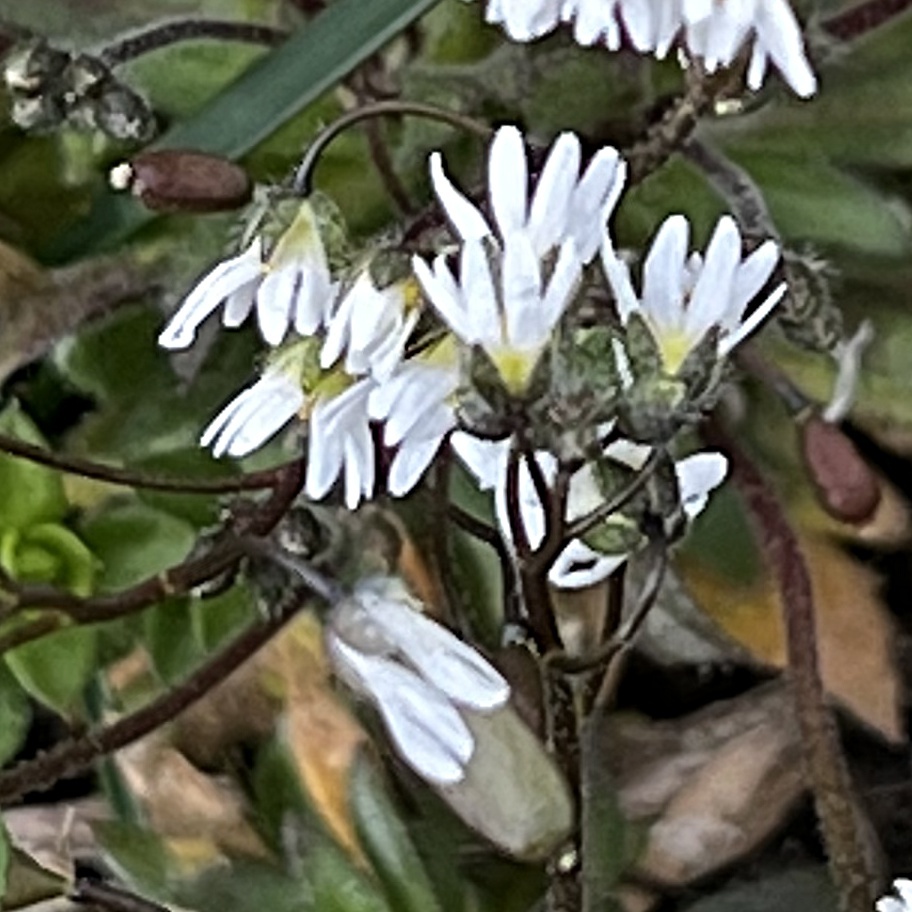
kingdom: Plantae
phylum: Tracheophyta
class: Magnoliopsida
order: Brassicales
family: Brassicaceae
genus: Draba
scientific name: Draba verna
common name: Spring draba
